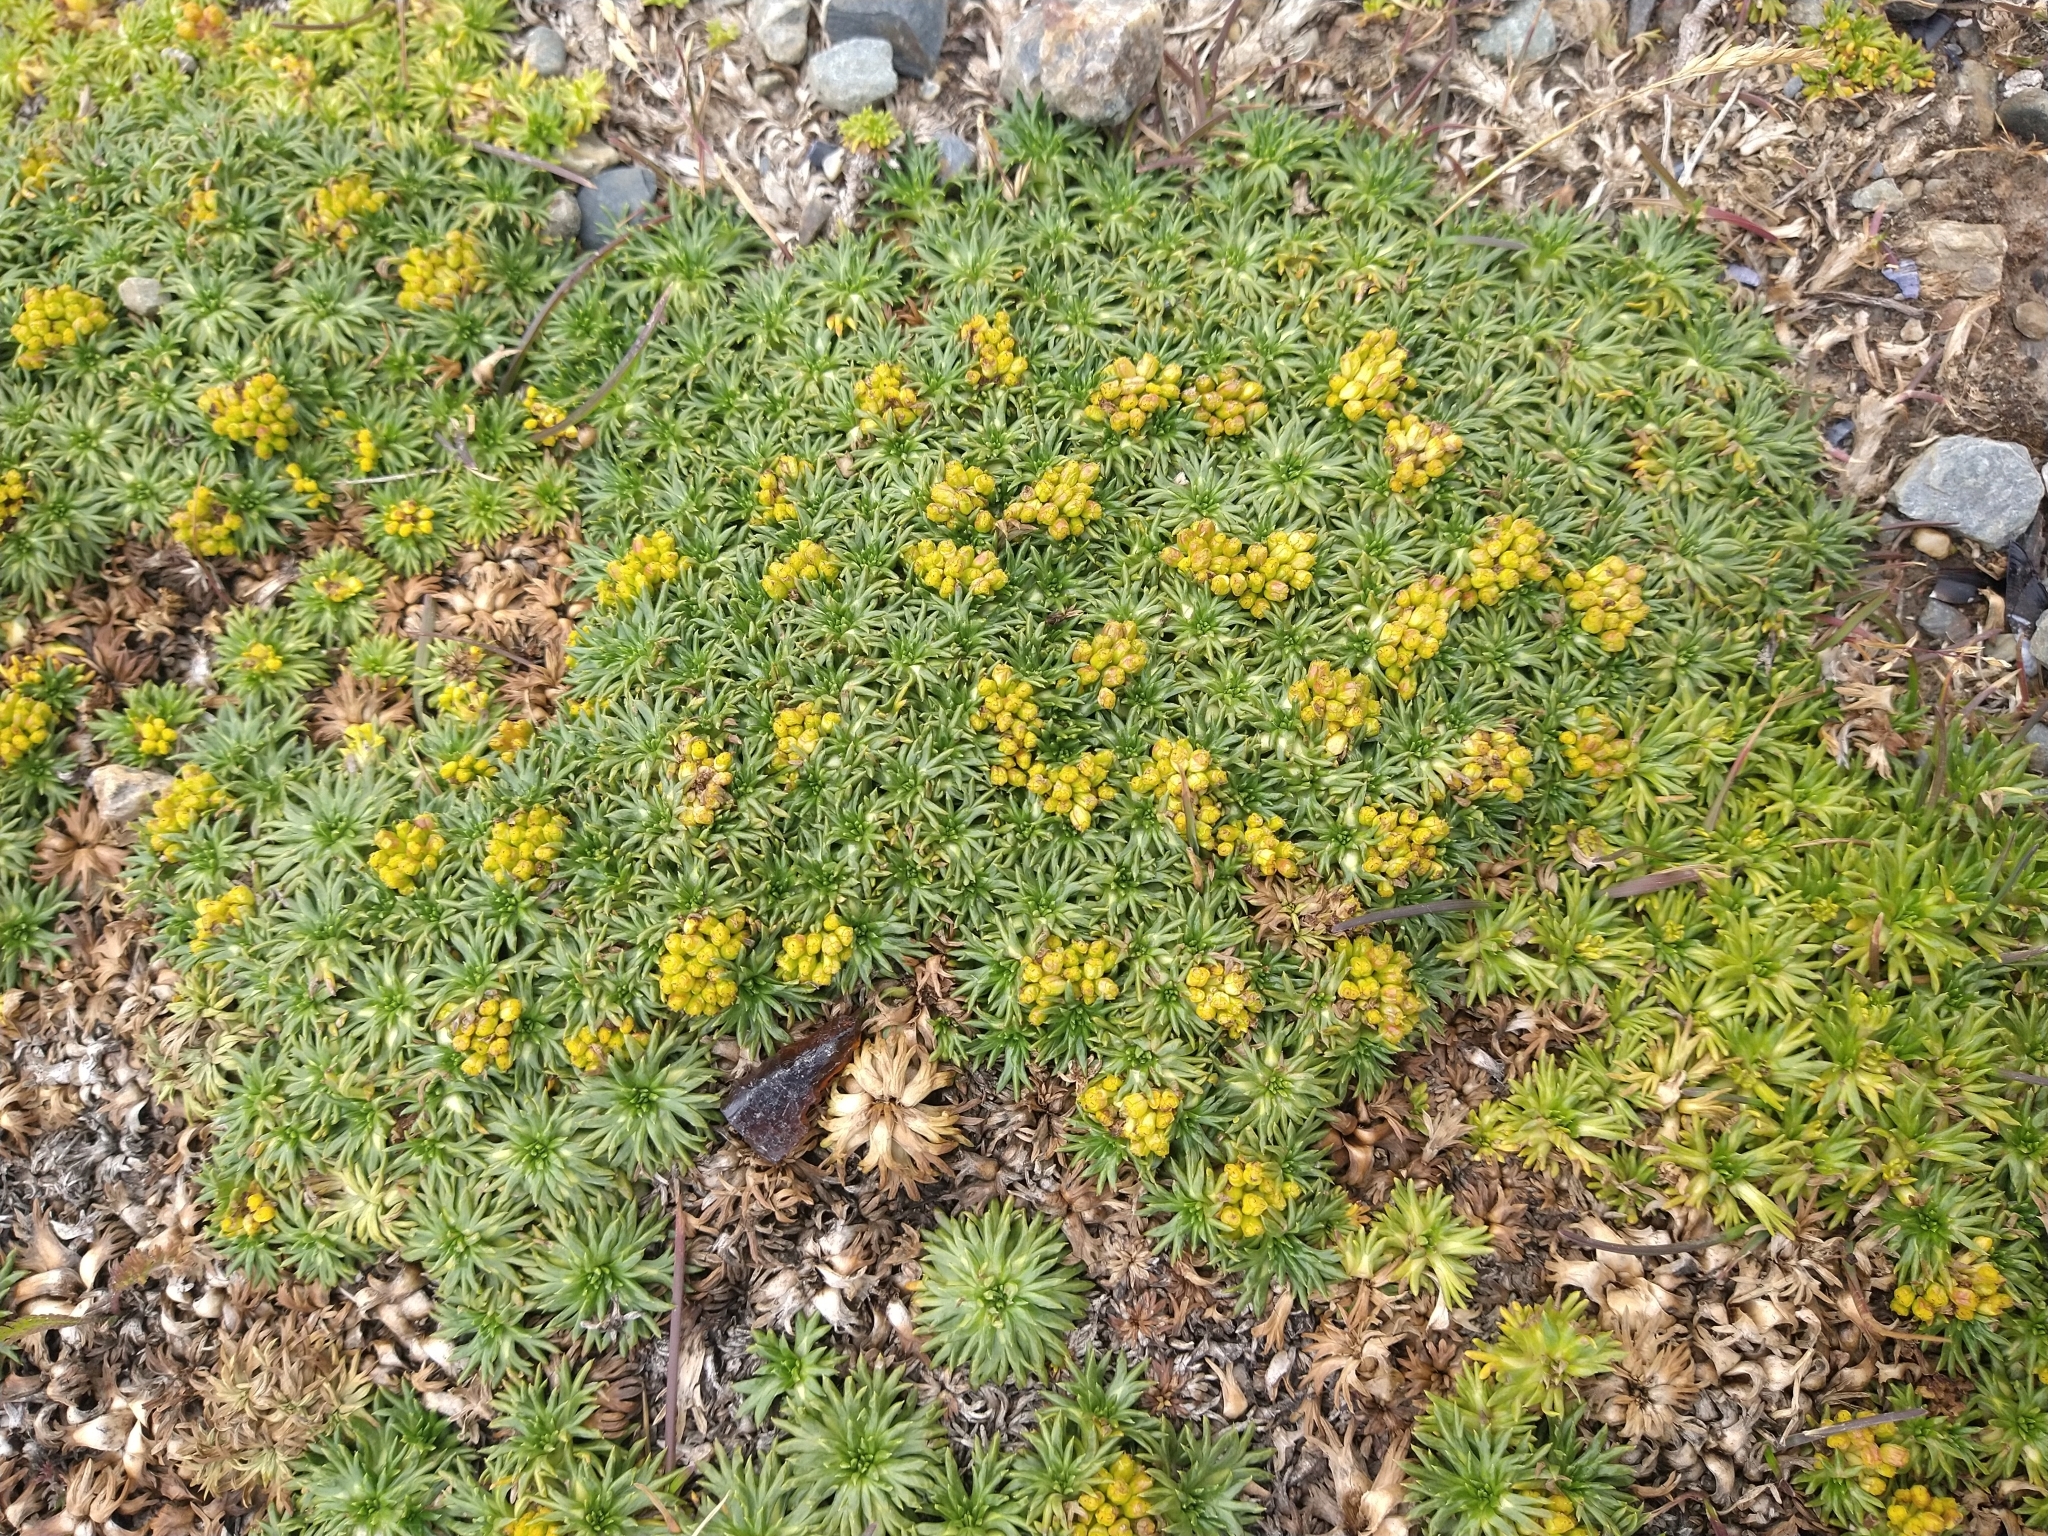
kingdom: Plantae
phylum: Tracheophyta
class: Magnoliopsida
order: Apiales
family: Apiaceae
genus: Azorella
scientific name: Azorella trifurcata
